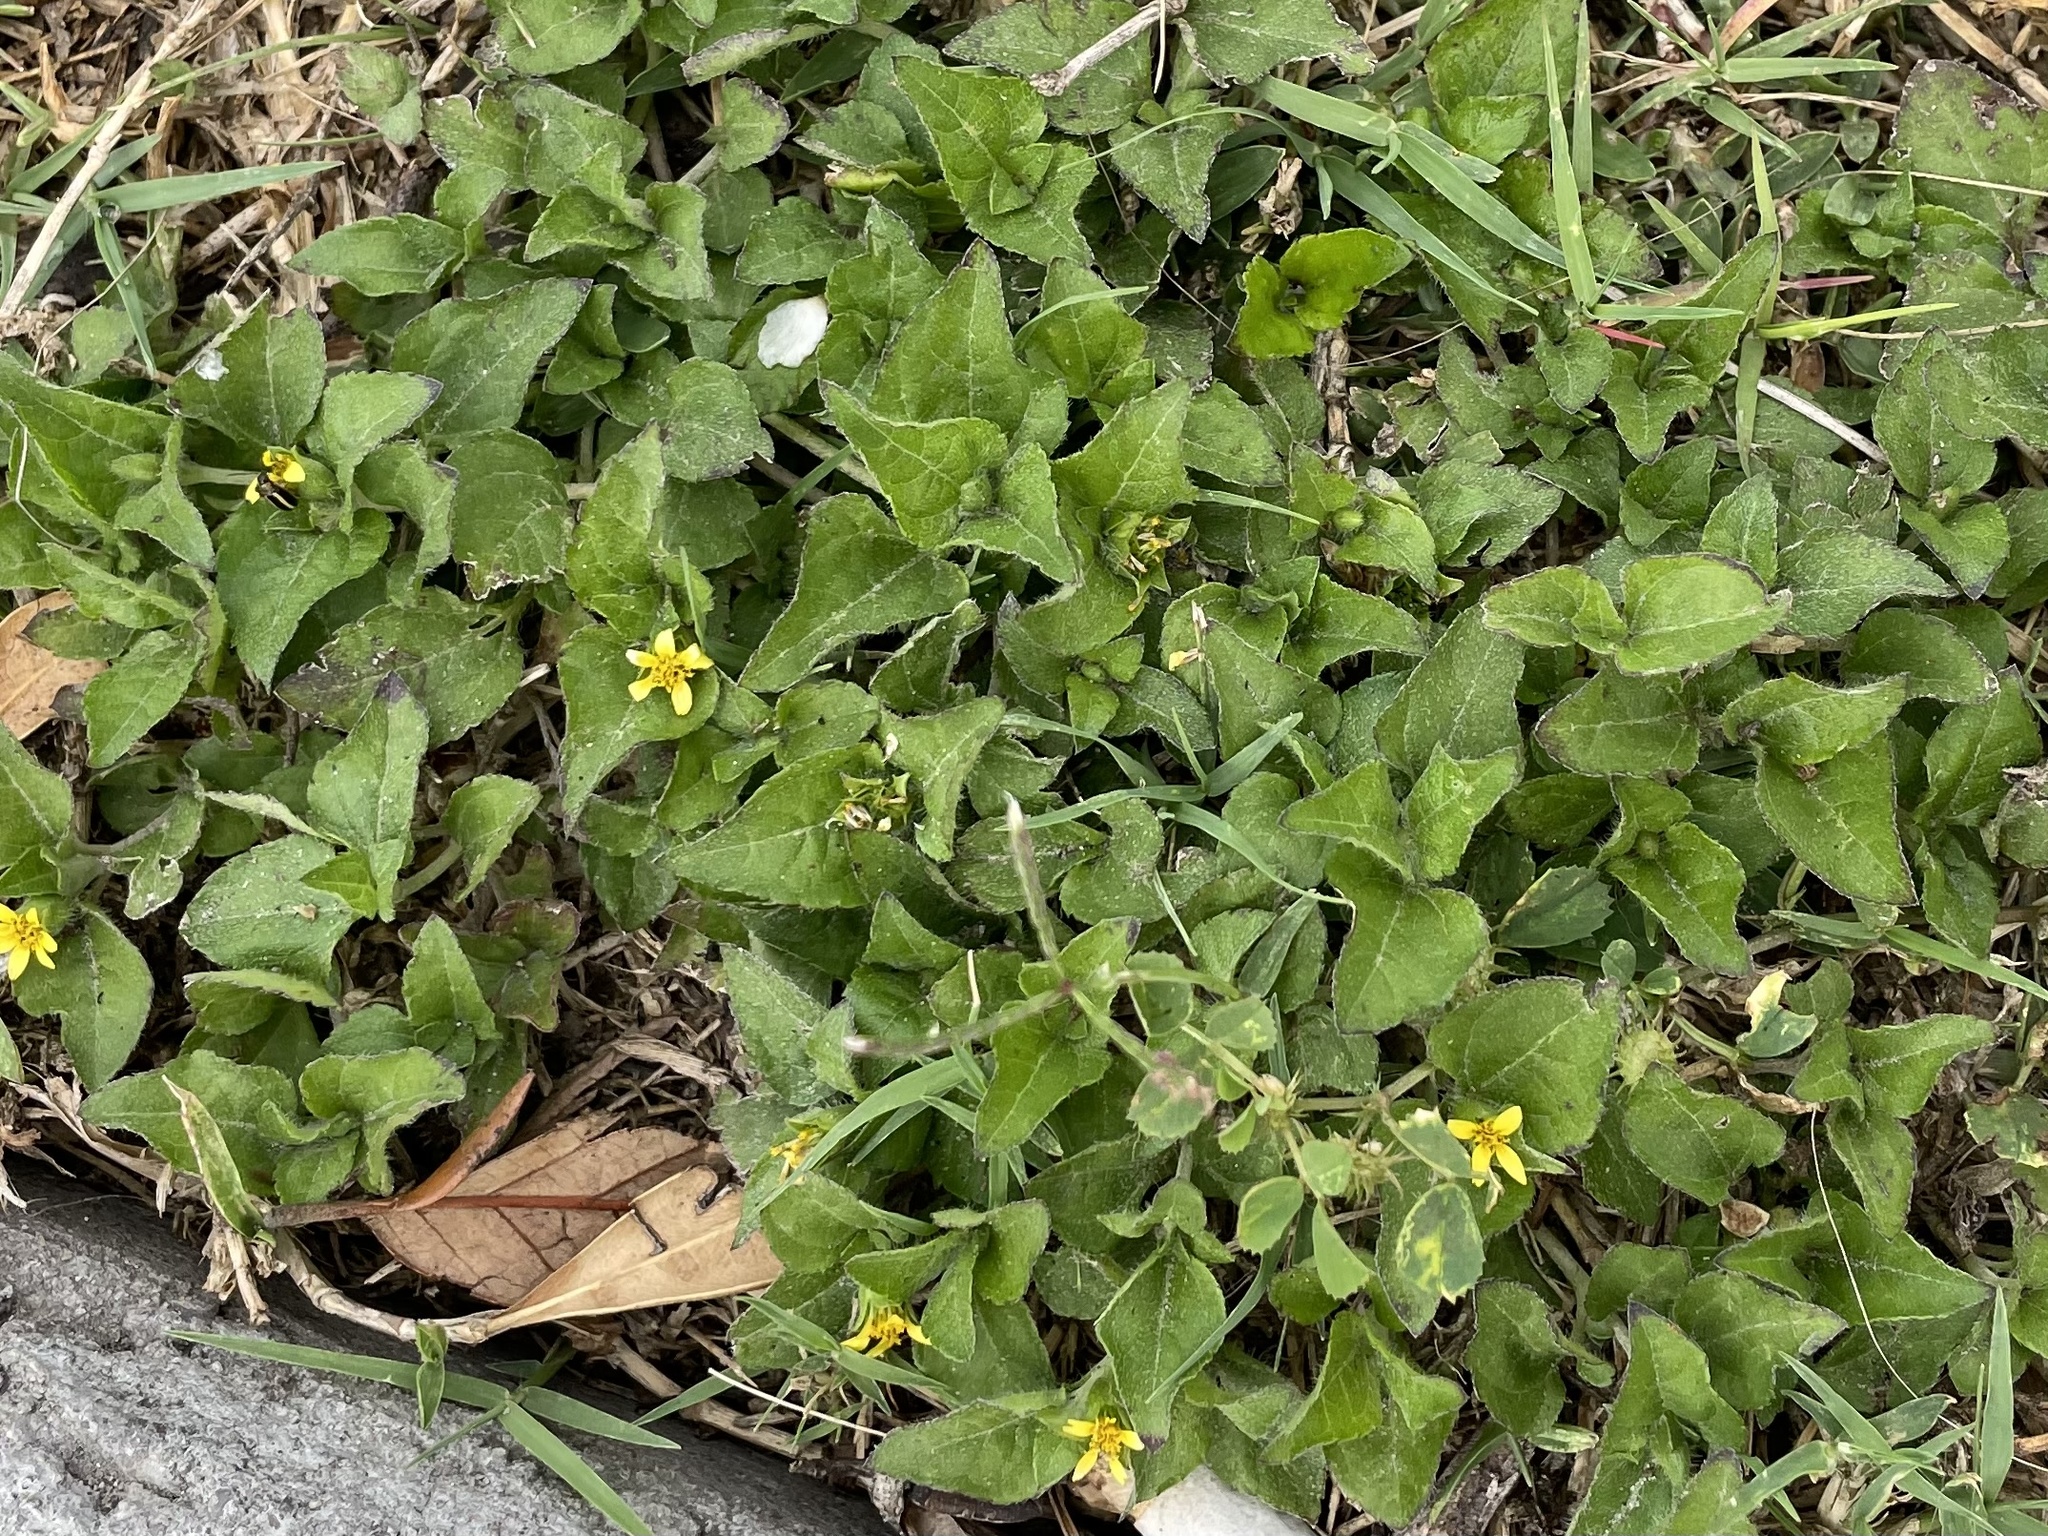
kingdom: Plantae
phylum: Tracheophyta
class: Magnoliopsida
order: Asterales
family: Asteraceae
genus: Calyptocarpus
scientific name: Calyptocarpus vialis
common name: Straggler daisy
